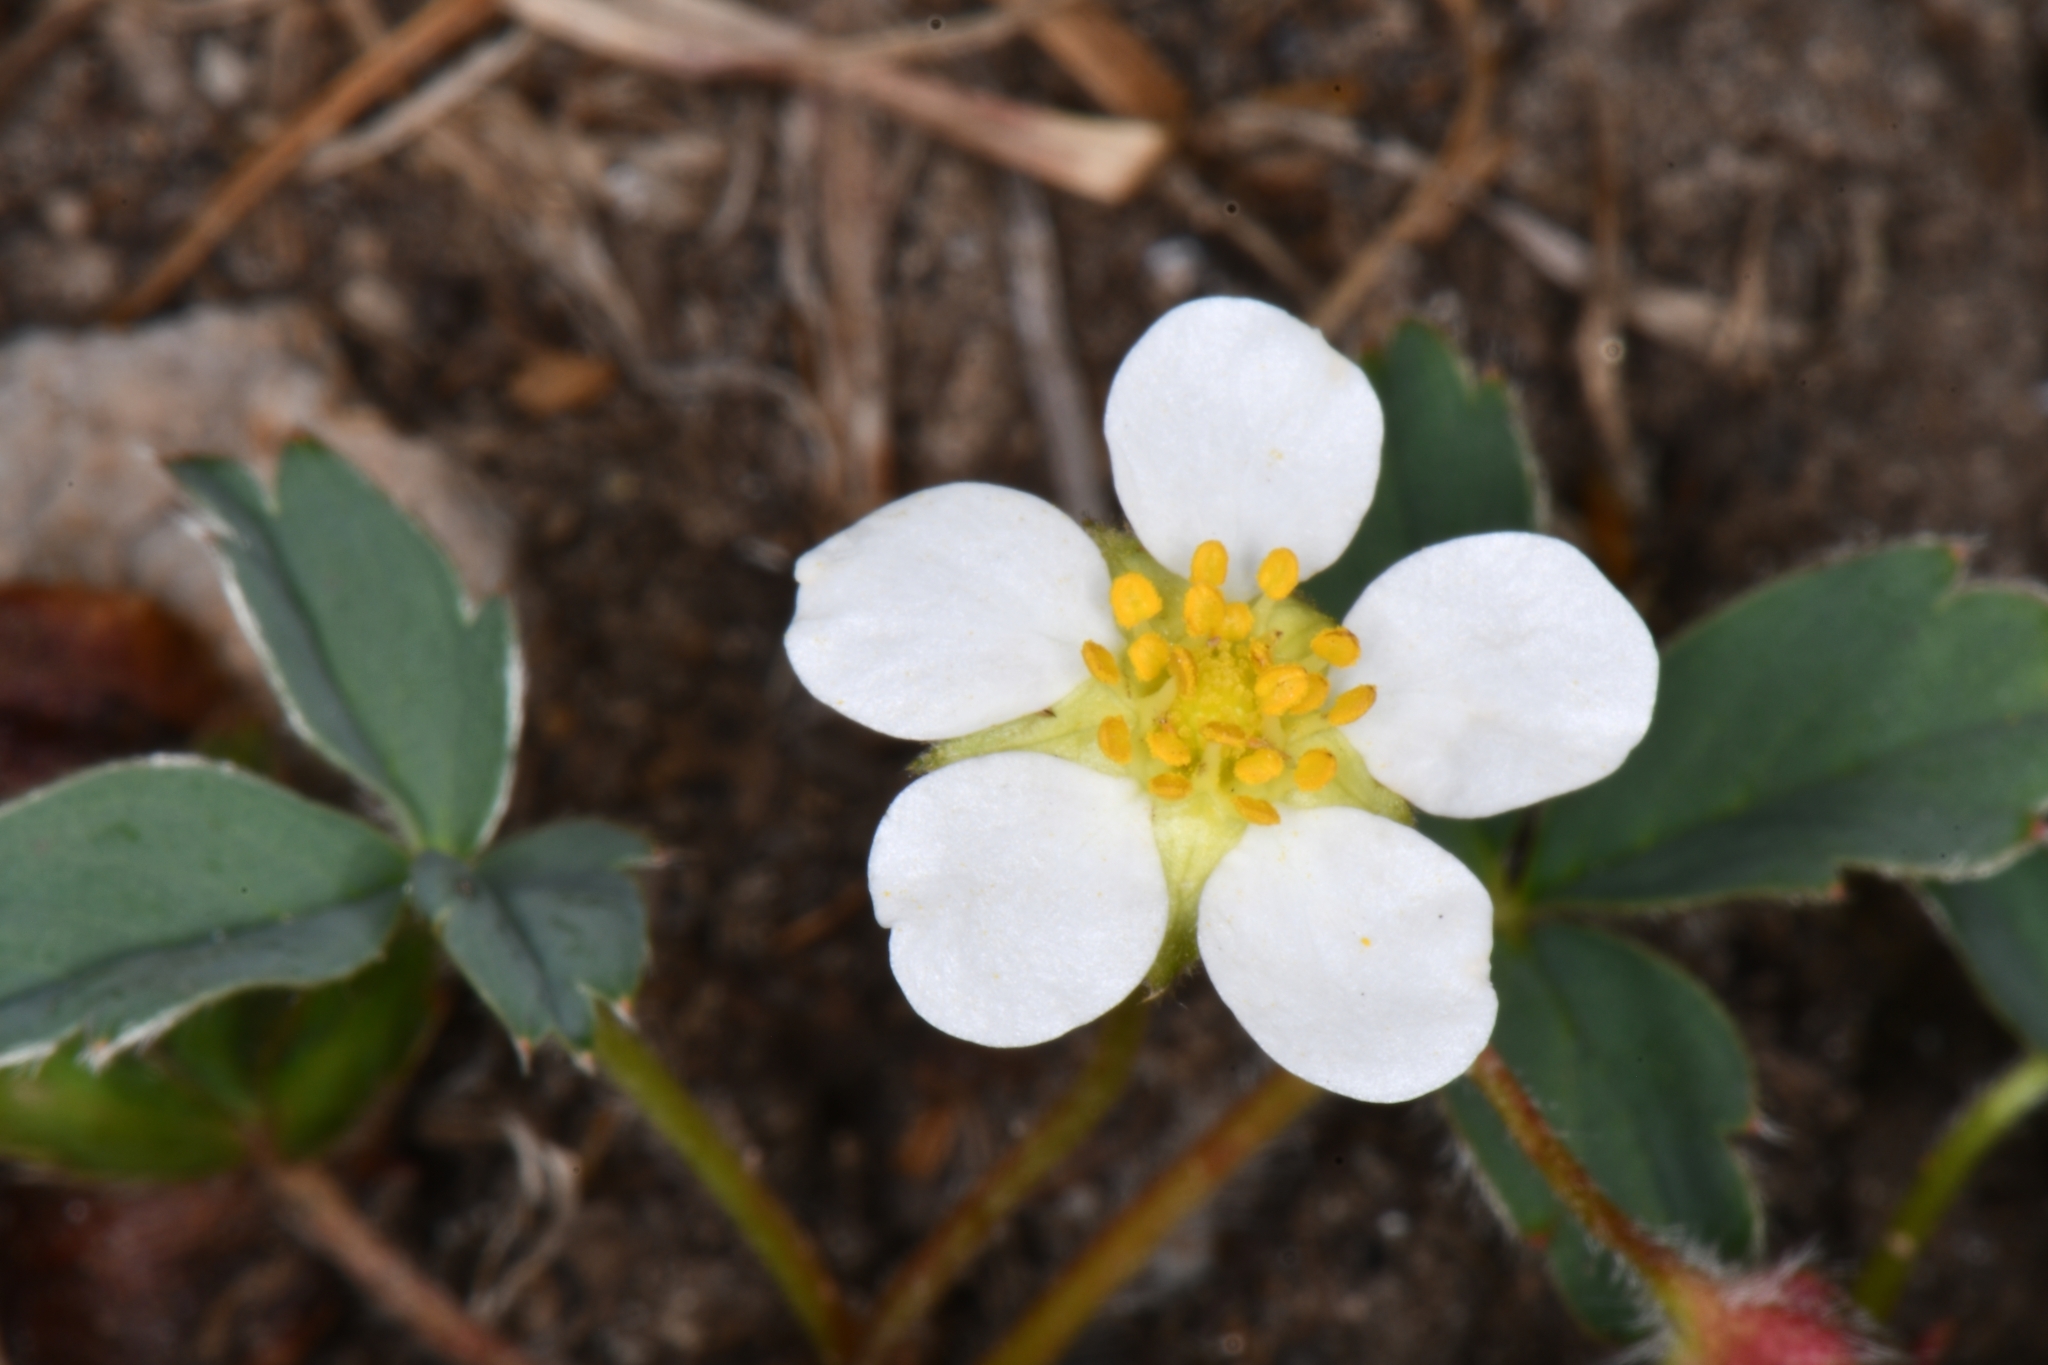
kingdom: Plantae
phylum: Tracheophyta
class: Magnoliopsida
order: Rosales
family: Rosaceae
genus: Fragaria
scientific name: Fragaria virginiana
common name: Thickleaved wild strawberry
